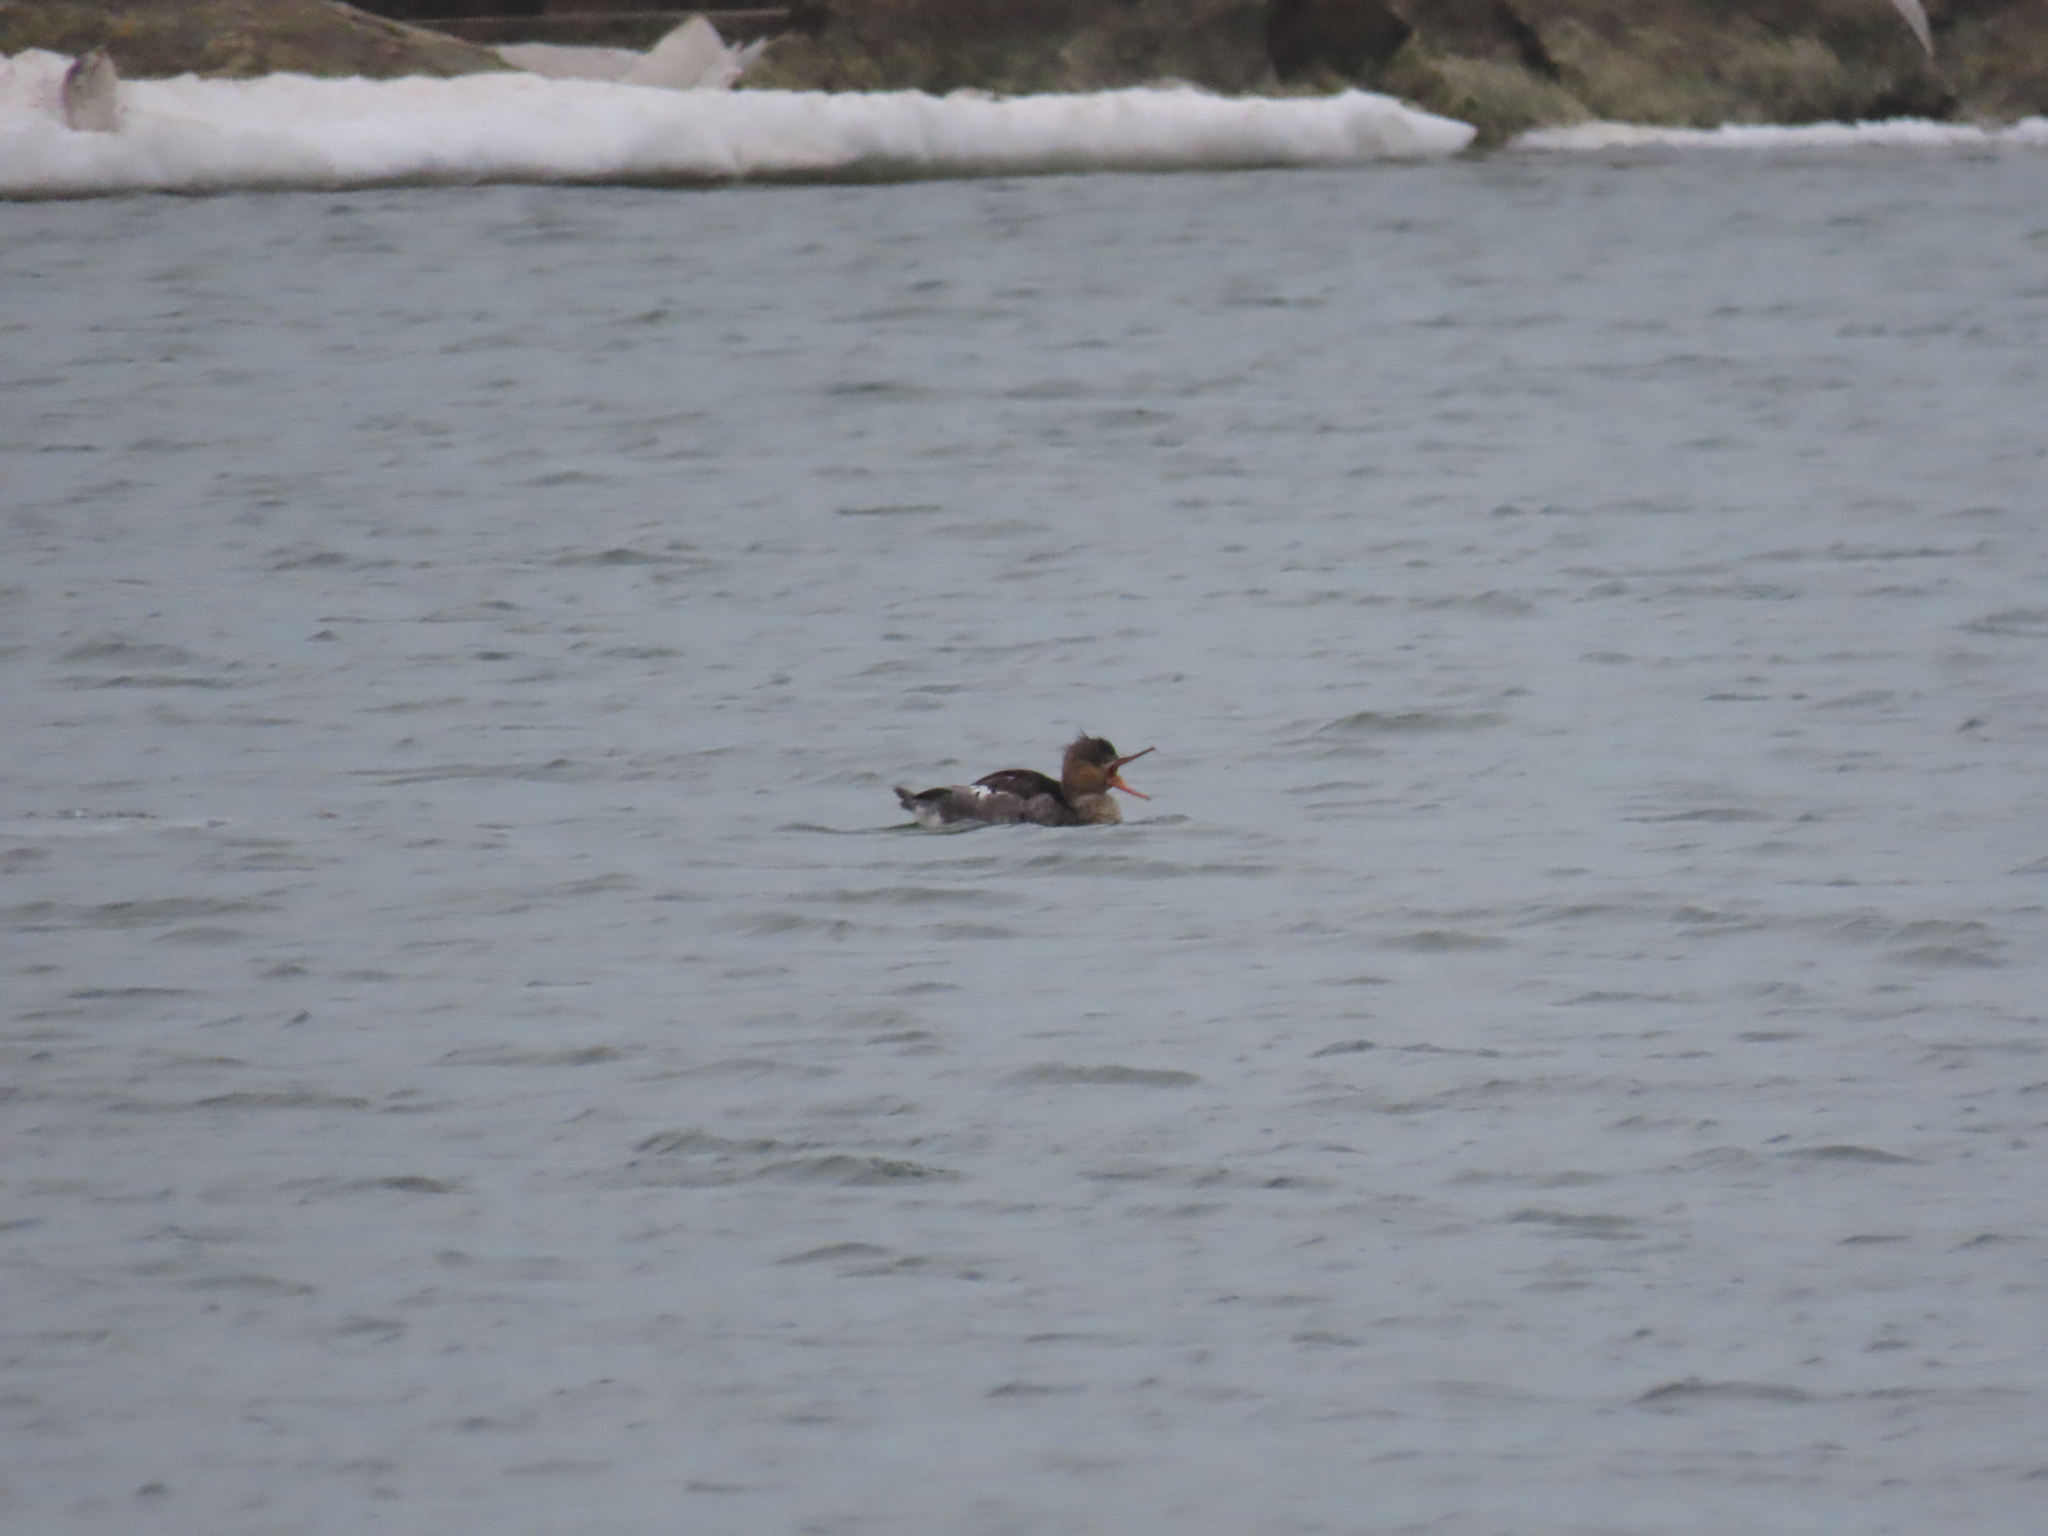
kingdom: Animalia
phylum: Chordata
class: Aves
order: Anseriformes
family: Anatidae
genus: Mergus
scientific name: Mergus serrator
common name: Red-breasted merganser
